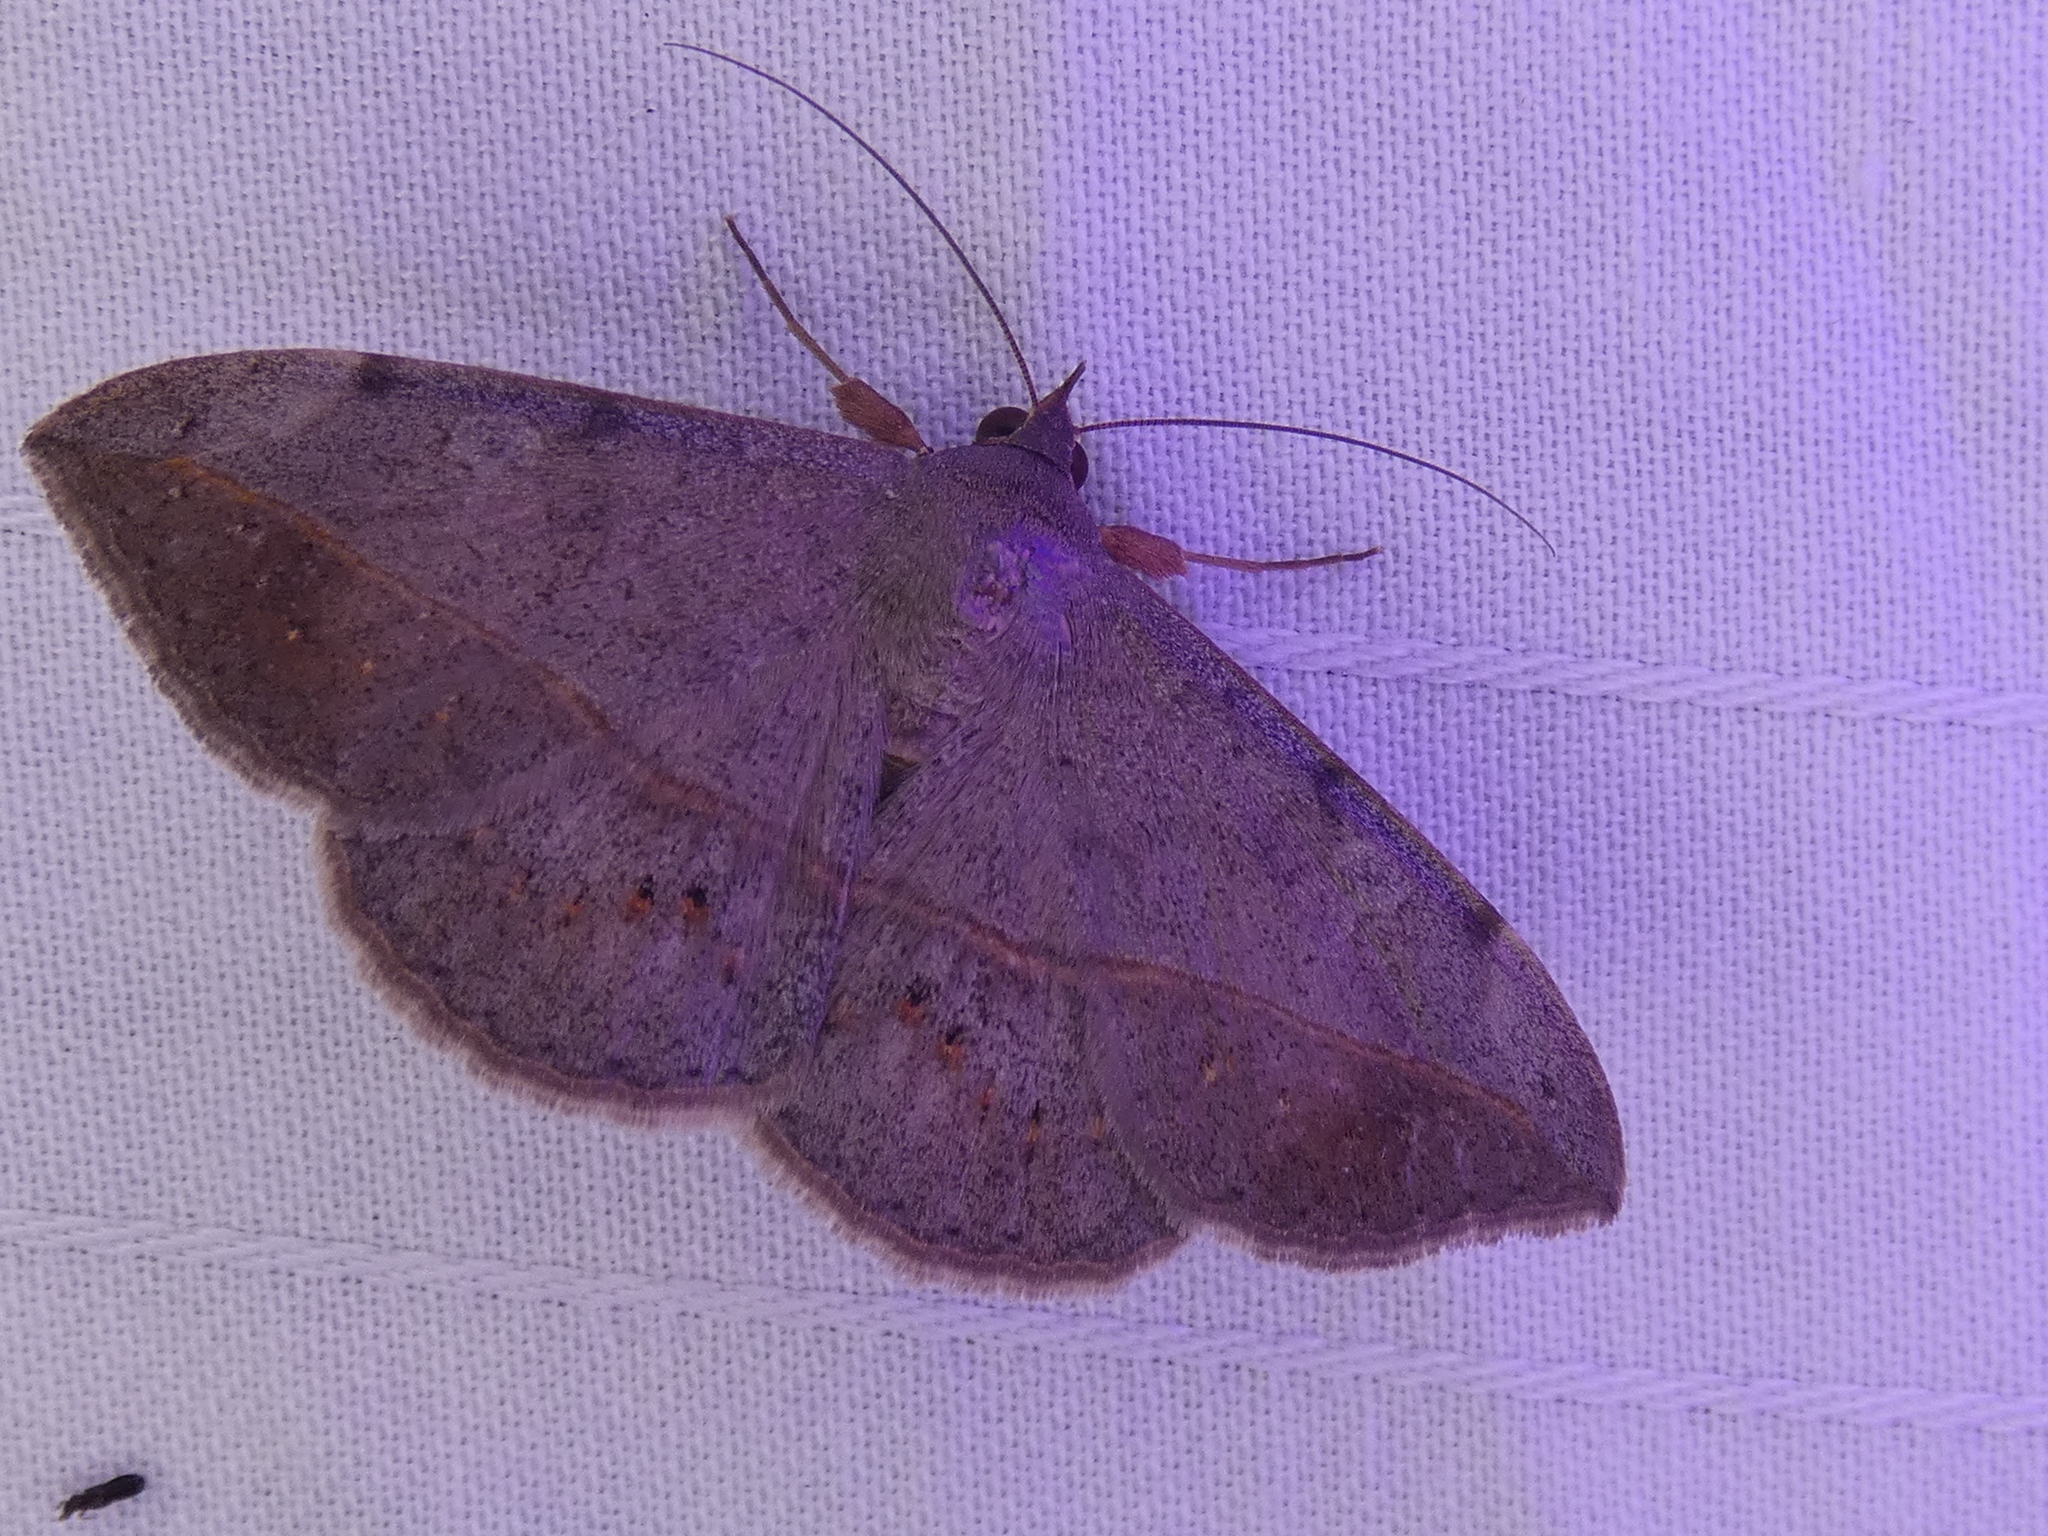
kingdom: Animalia
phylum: Arthropoda
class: Insecta
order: Lepidoptera
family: Erebidae
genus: Anticarsia
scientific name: Anticarsia gemmatalis
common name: Cutworm moth
